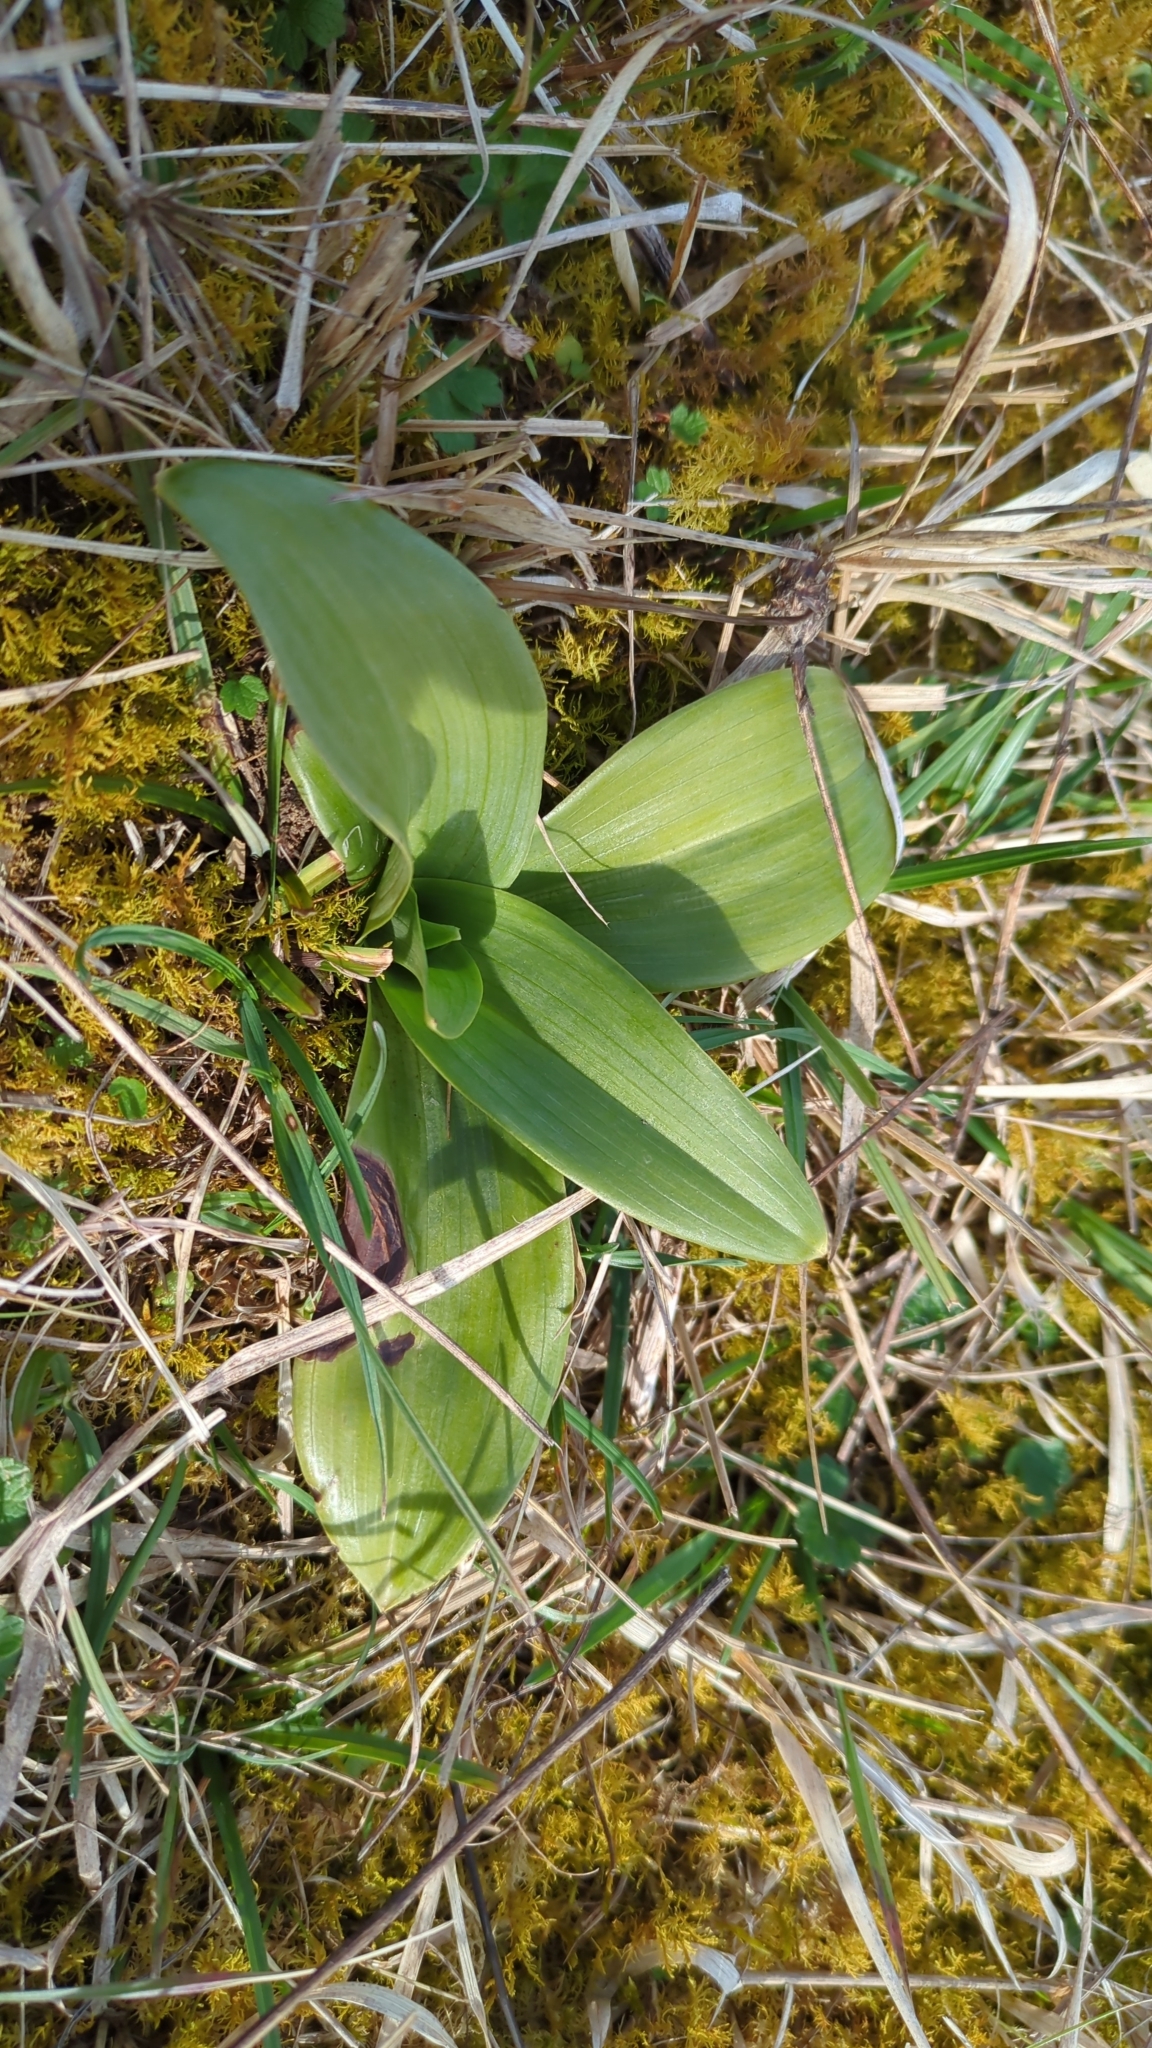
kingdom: Plantae
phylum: Tracheophyta
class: Liliopsida
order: Asparagales
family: Orchidaceae
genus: Himantoglossum
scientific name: Himantoglossum hircinum
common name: Lizard orchid
